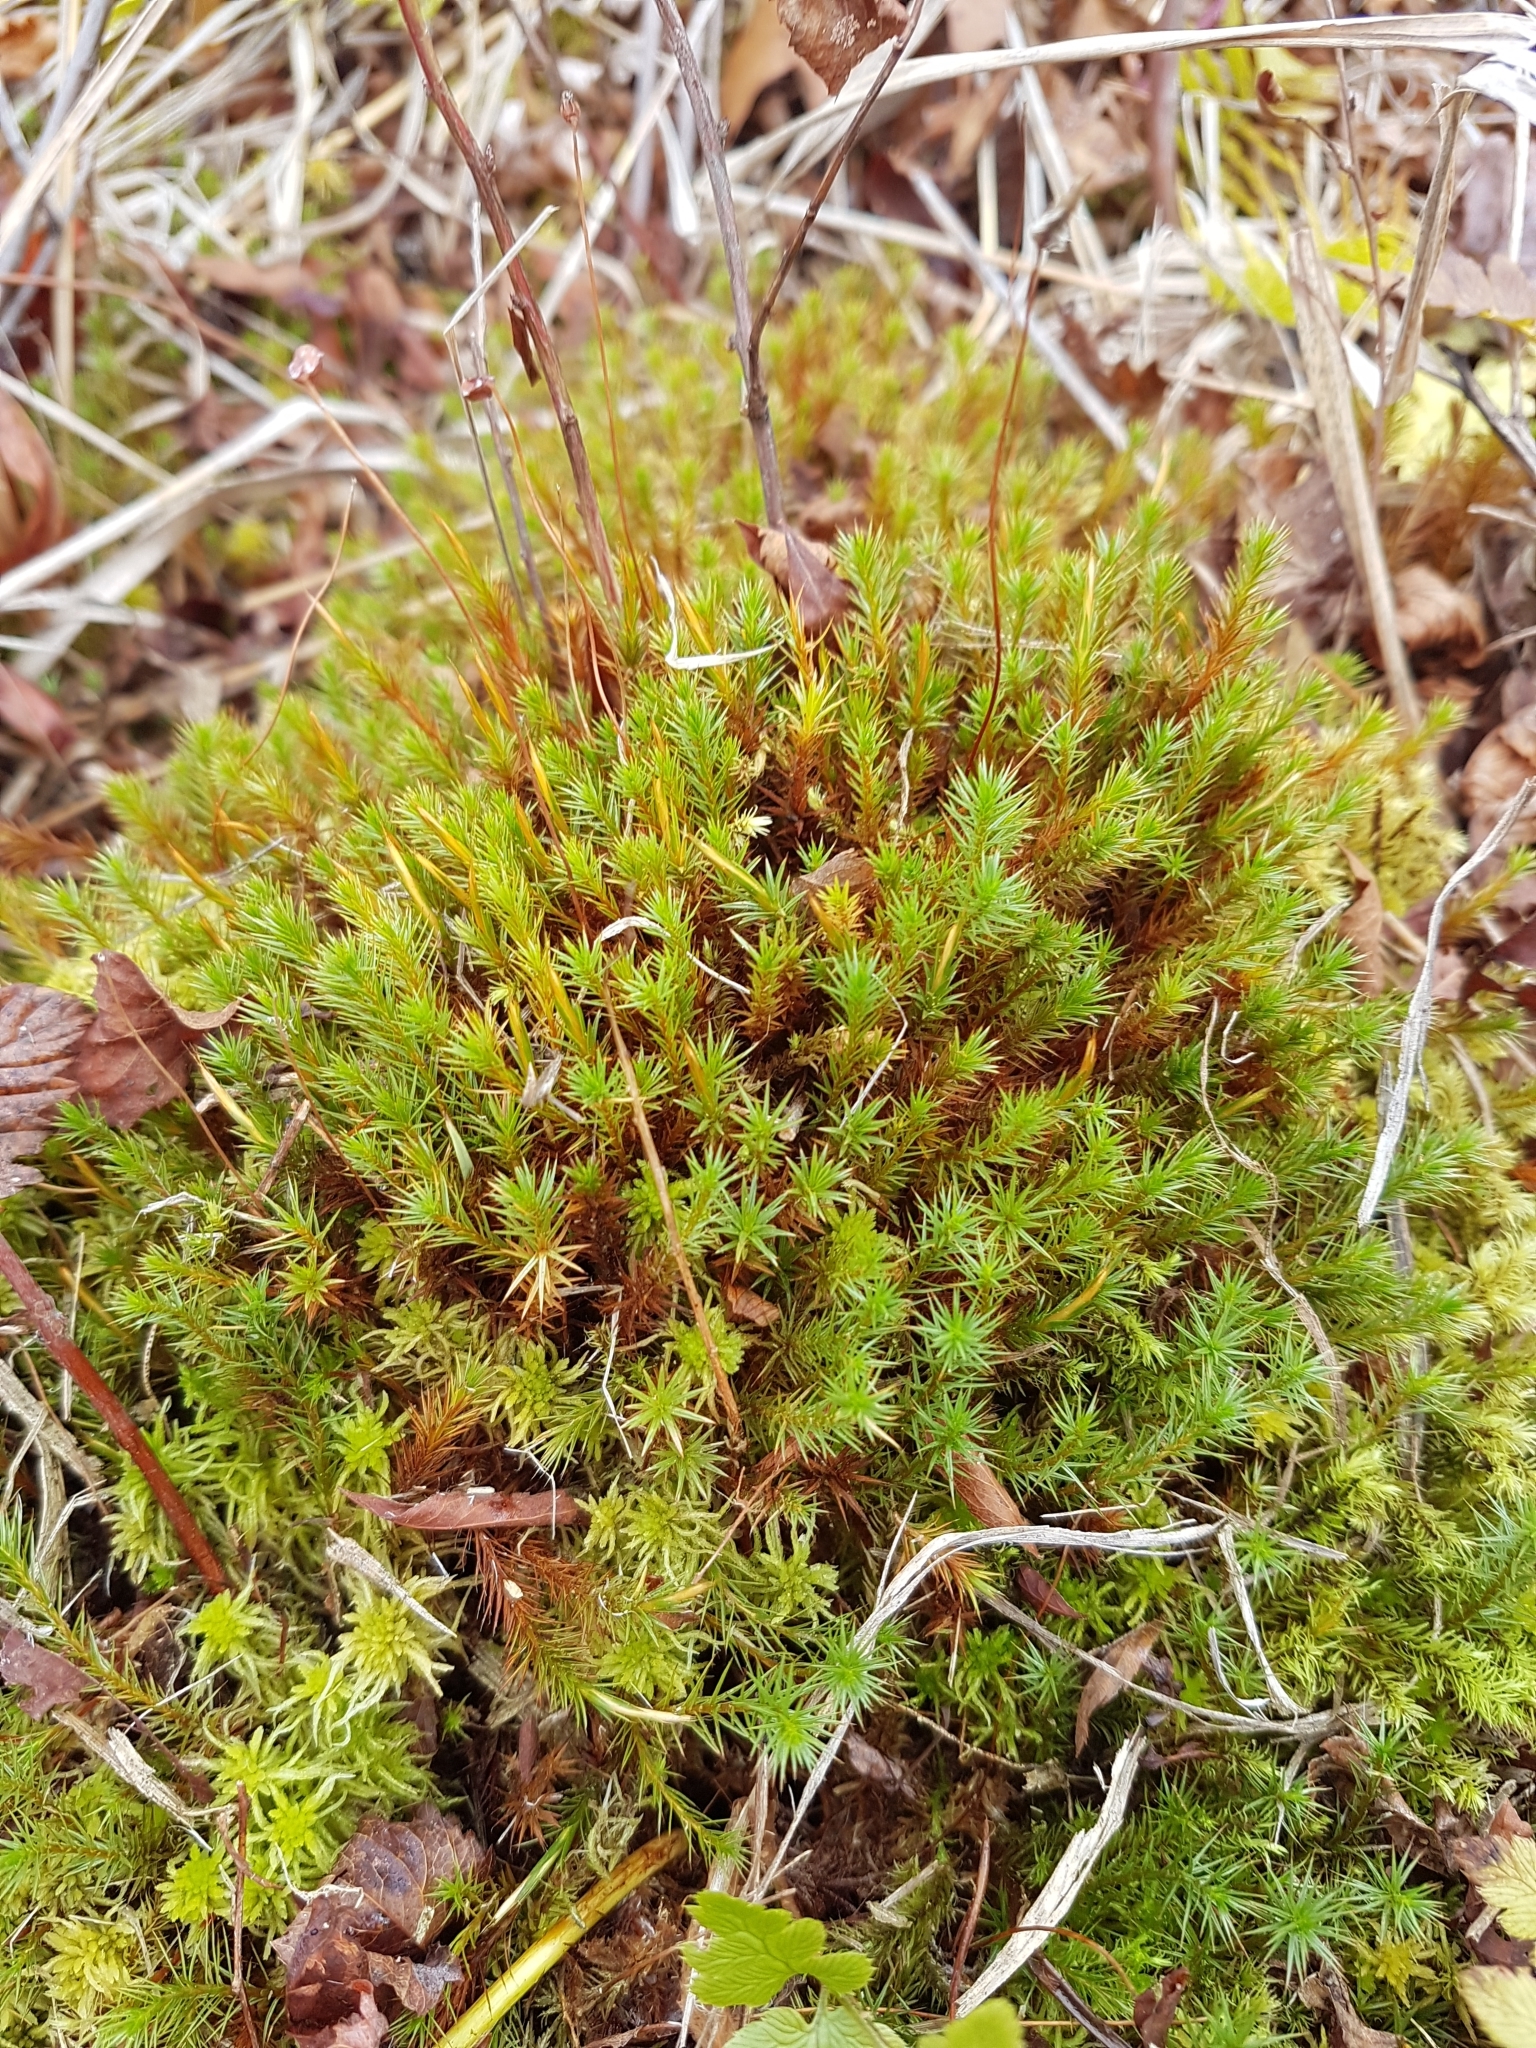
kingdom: Plantae
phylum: Bryophyta
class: Polytrichopsida
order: Polytrichales
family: Polytrichaceae
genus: Polytrichum
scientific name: Polytrichum strictum
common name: Bog haircap moss
